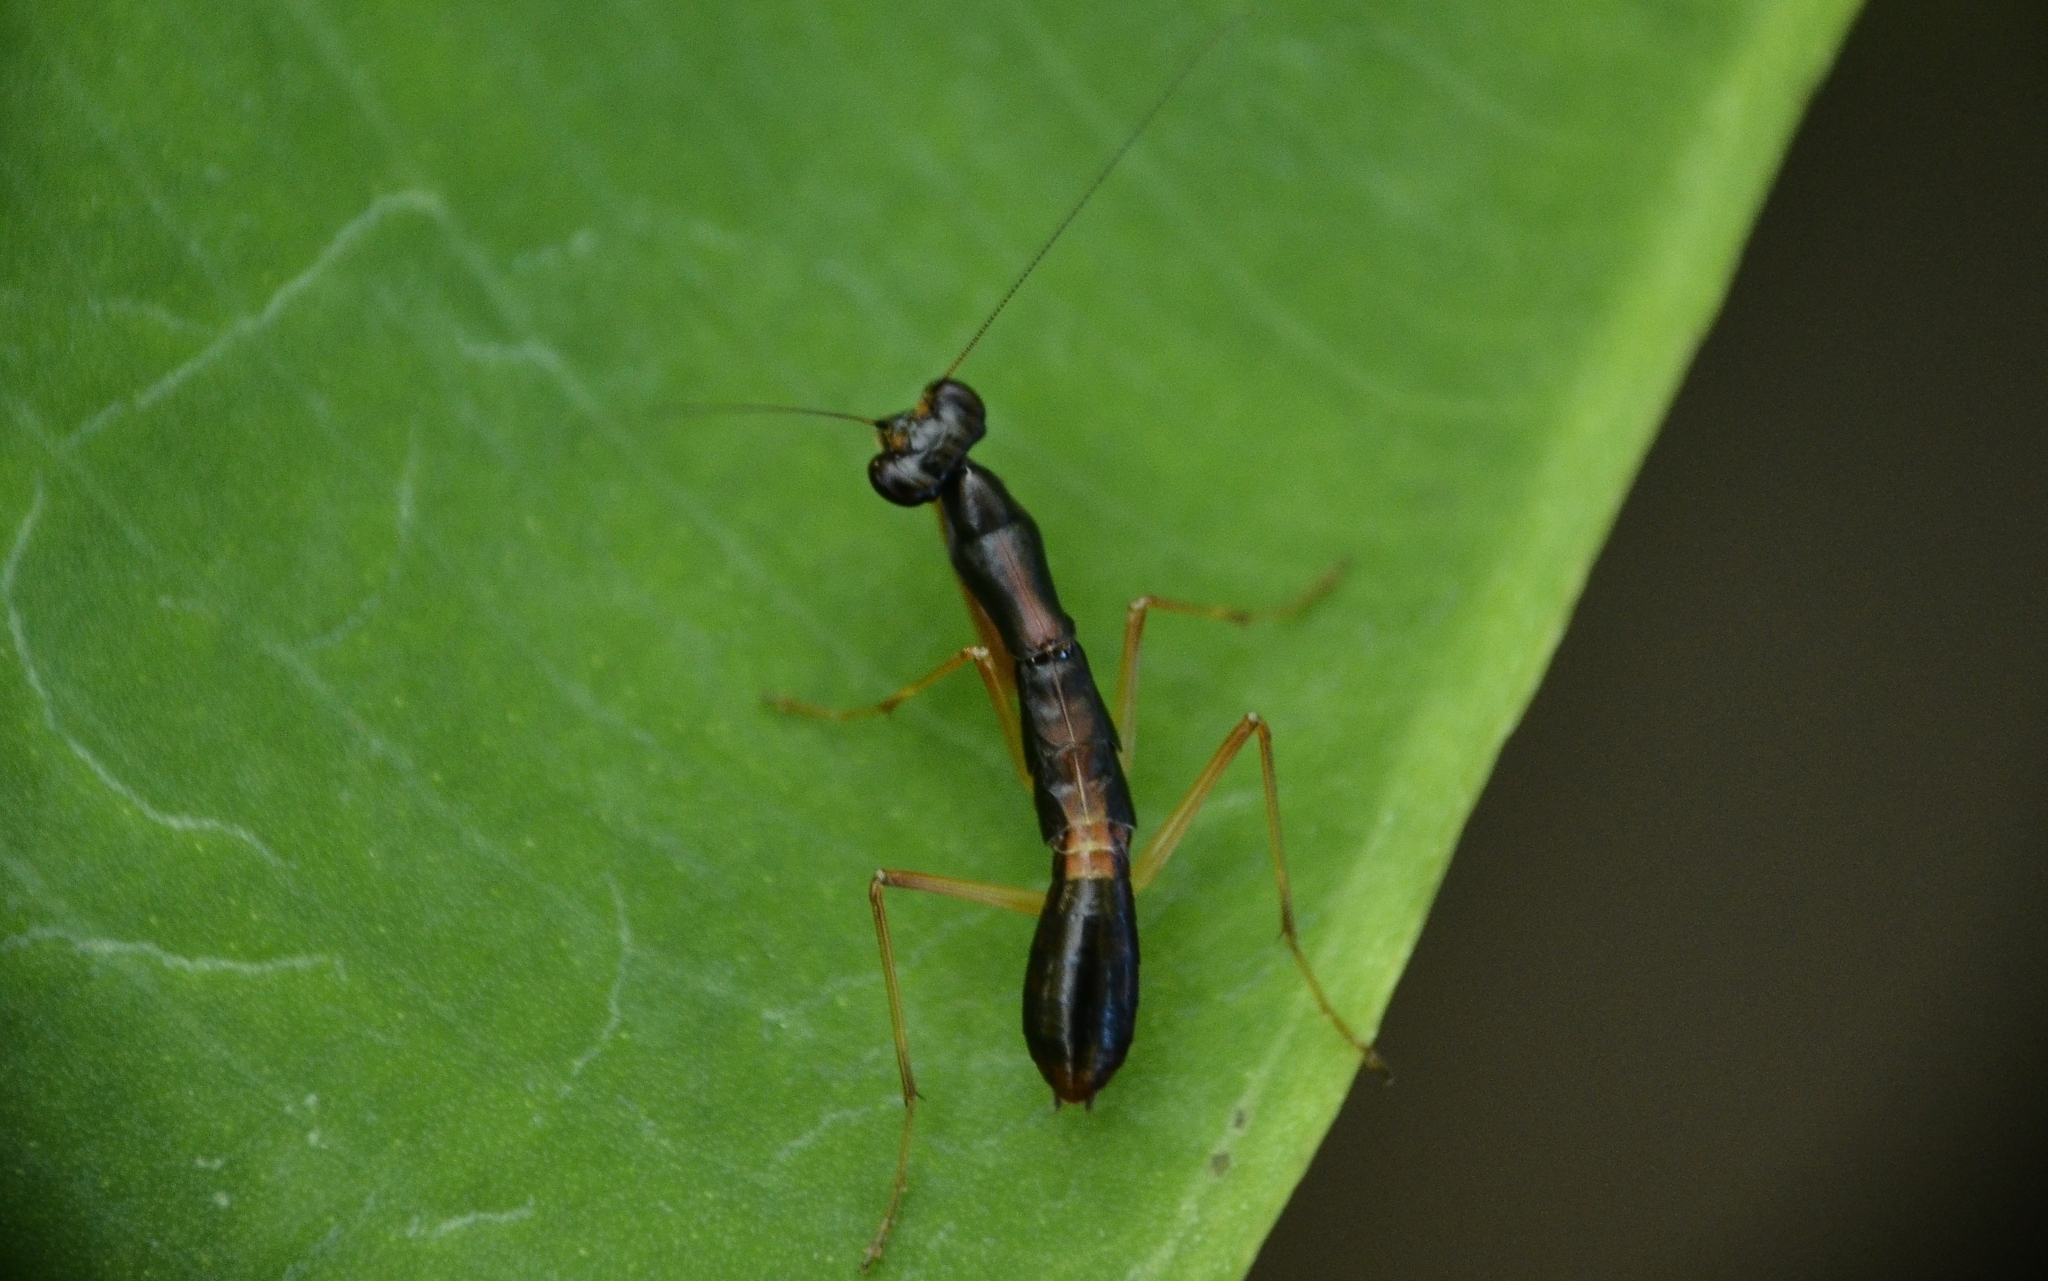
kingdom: Animalia
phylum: Arthropoda
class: Insecta
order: Mantodea
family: Hymenopodidae
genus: Odontomantis
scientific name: Odontomantis planiceps
